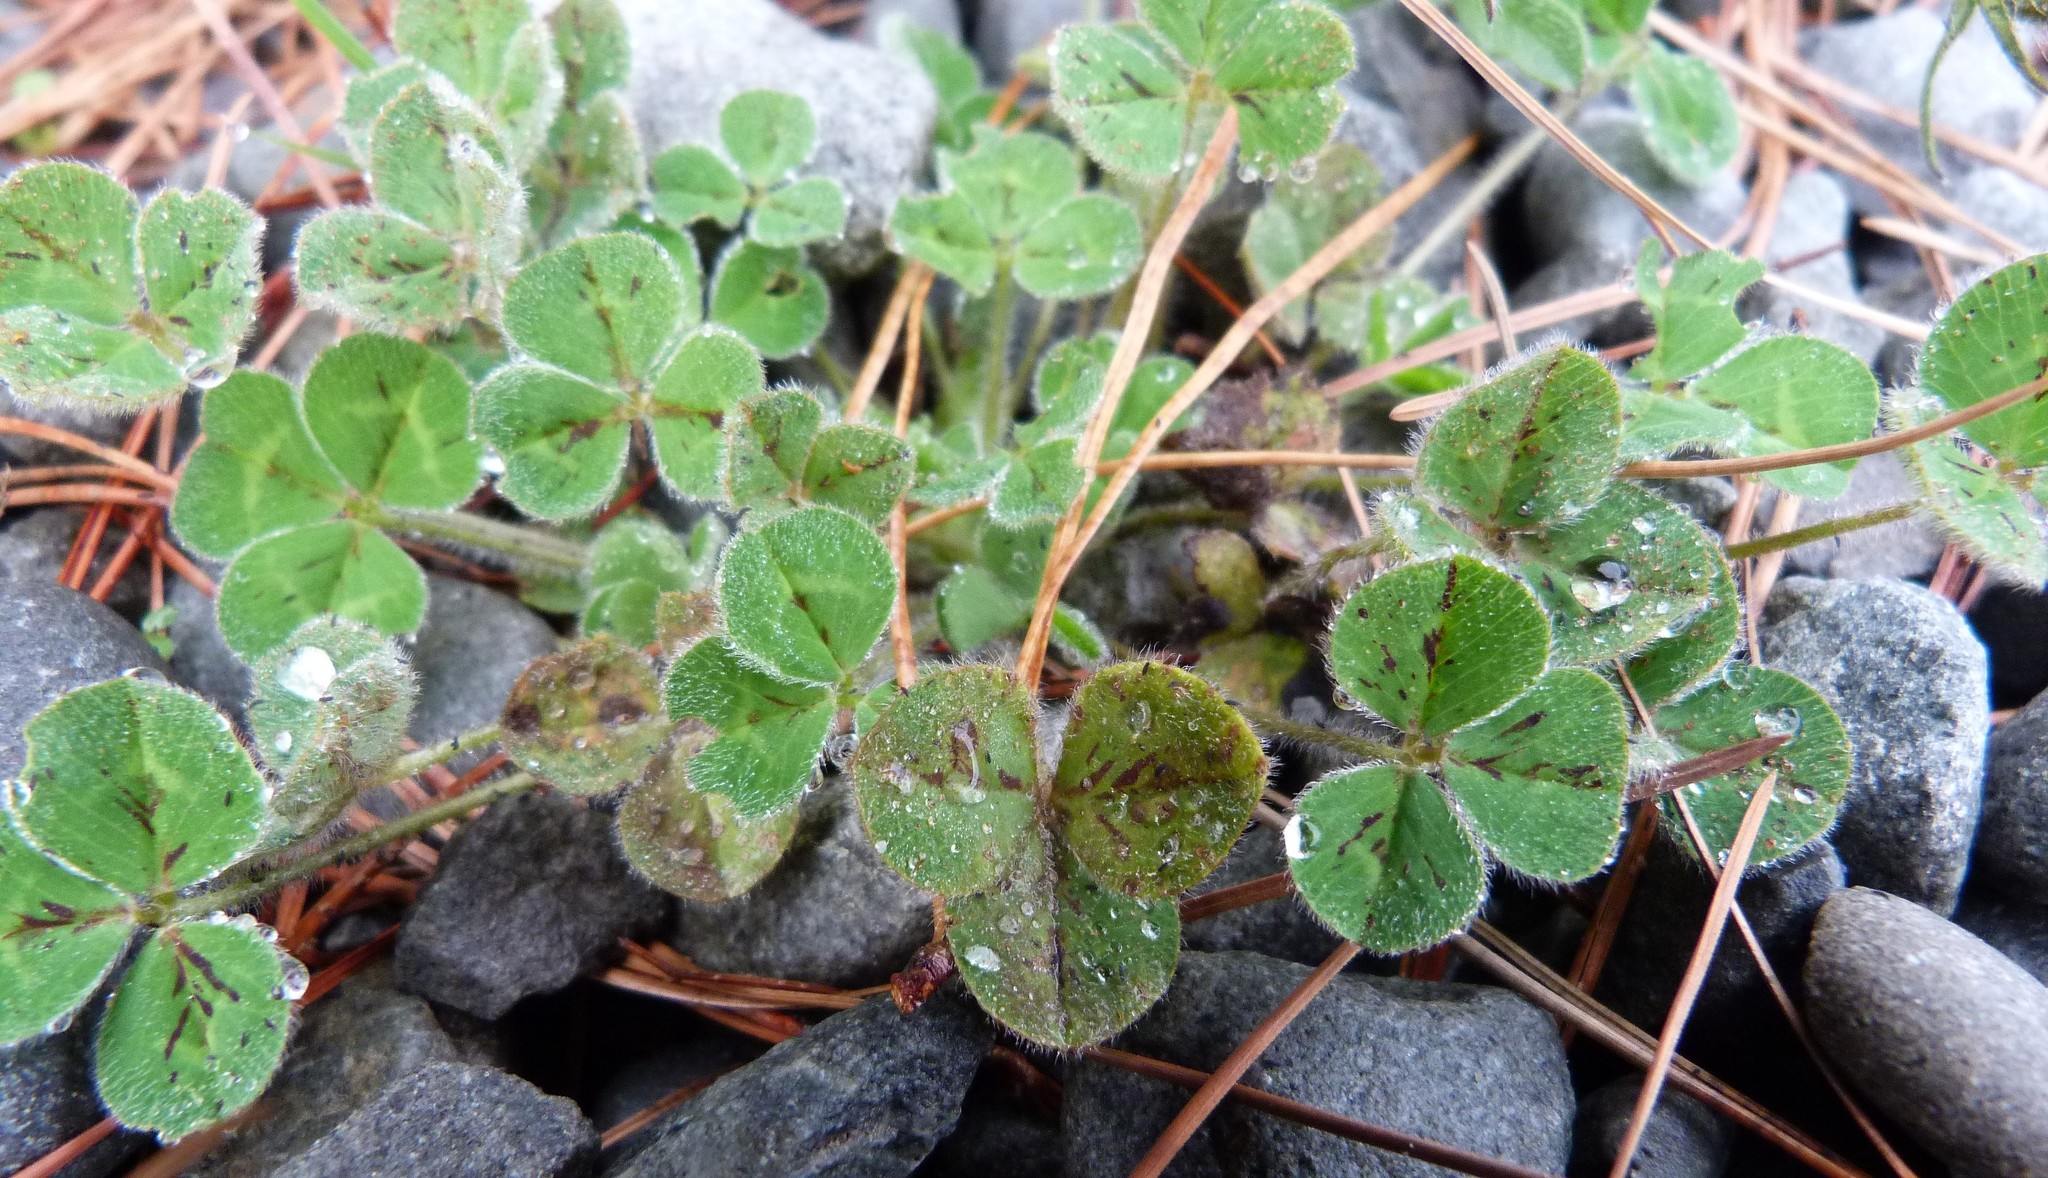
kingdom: Plantae
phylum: Tracheophyta
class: Magnoliopsida
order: Fabales
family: Fabaceae
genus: Trifolium
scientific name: Trifolium subterraneum
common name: Subterranean clover
